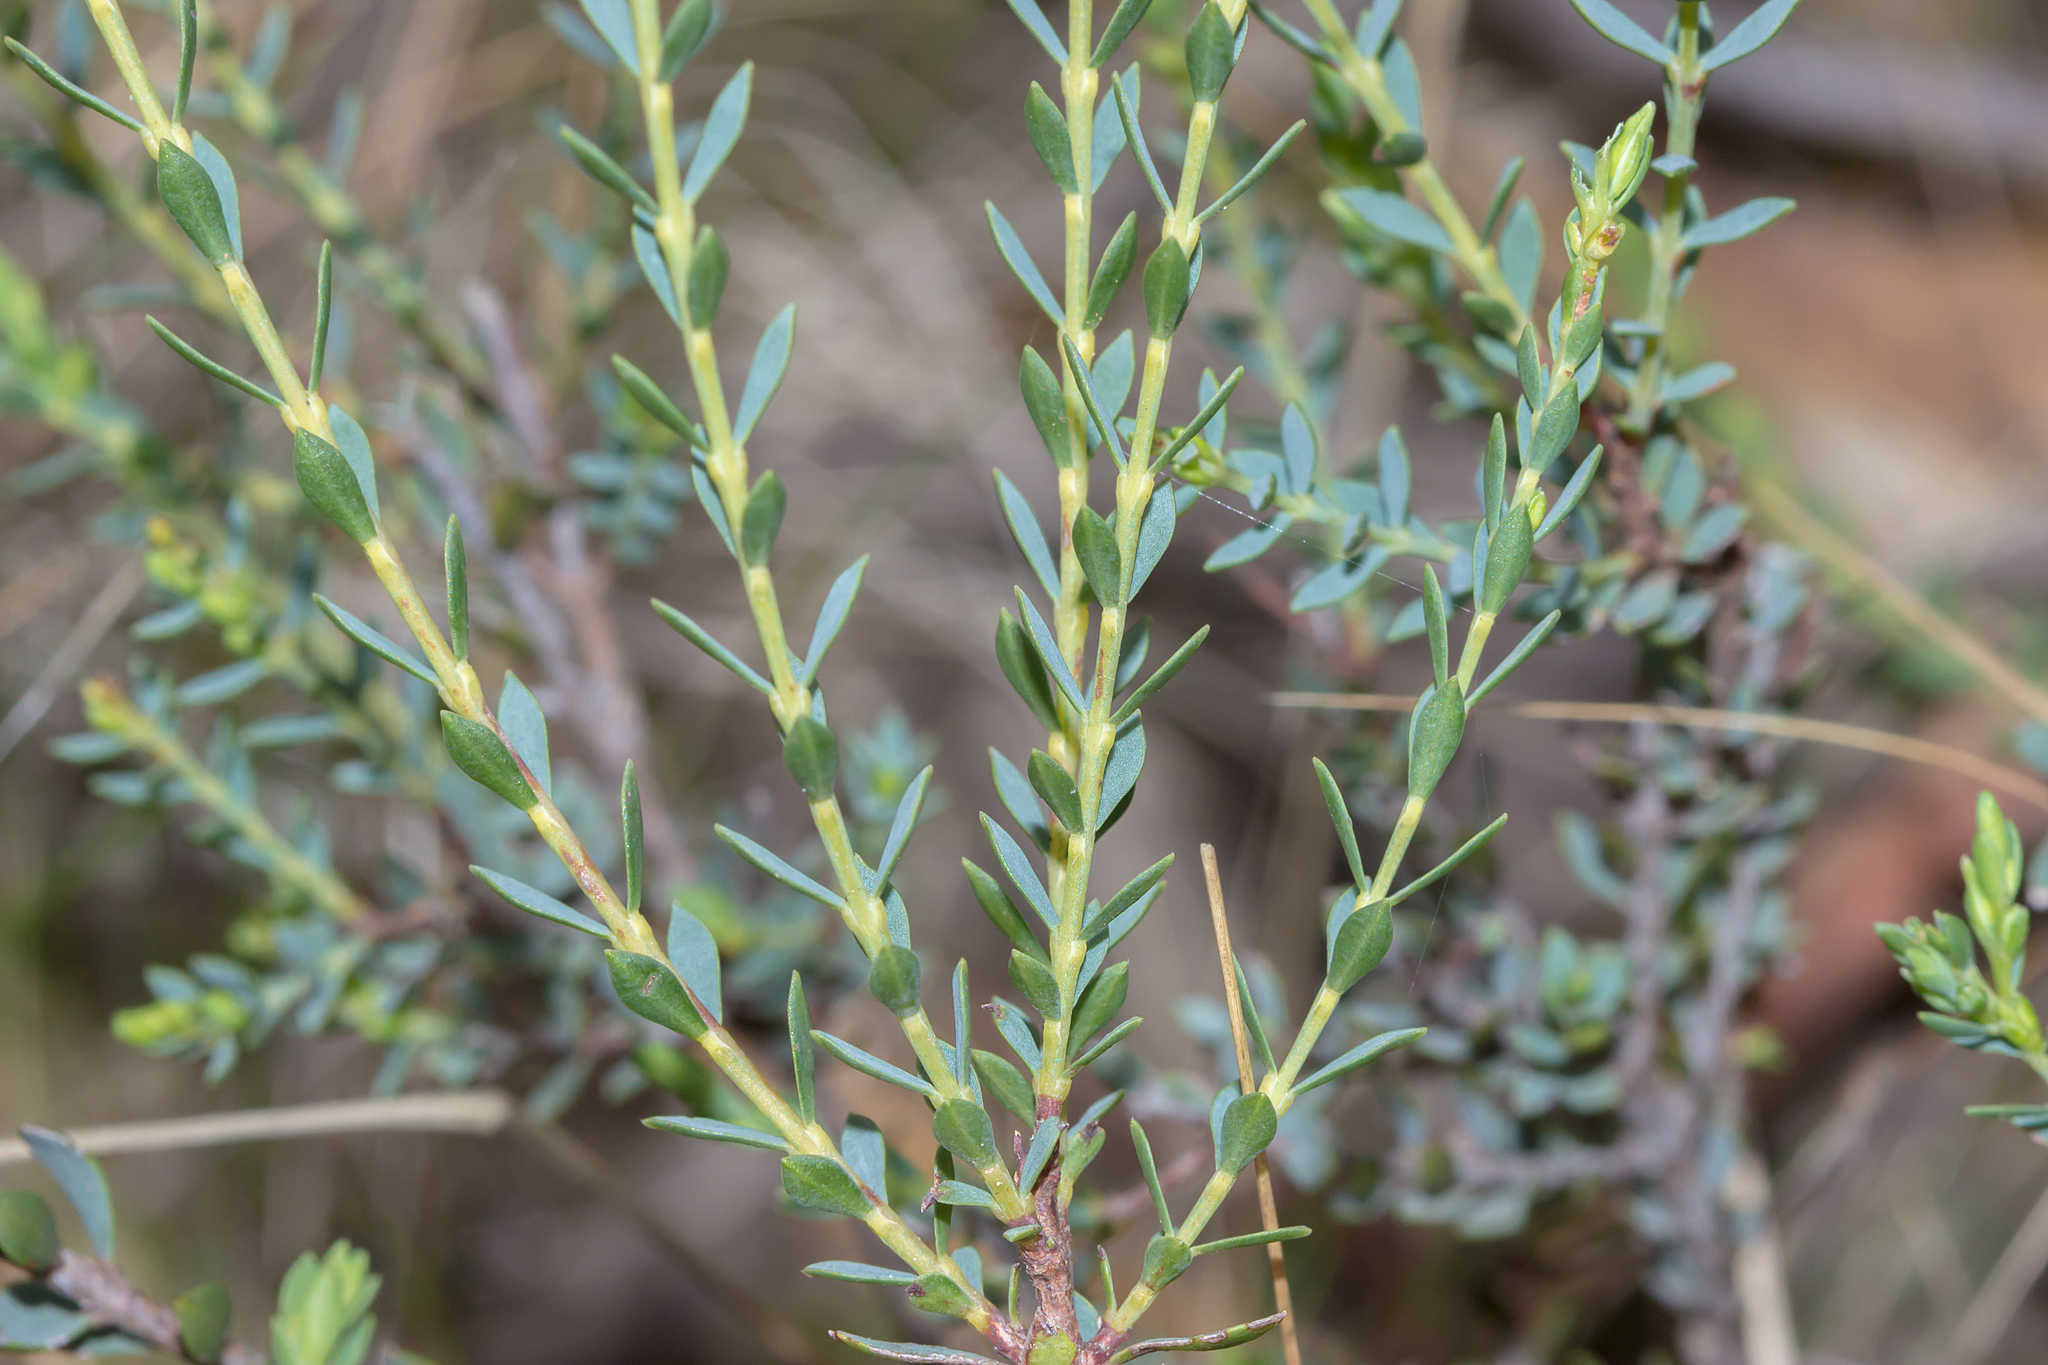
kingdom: Plantae
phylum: Tracheophyta
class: Magnoliopsida
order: Fabales
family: Fabaceae
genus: Eutaxia
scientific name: Eutaxia diffusa
